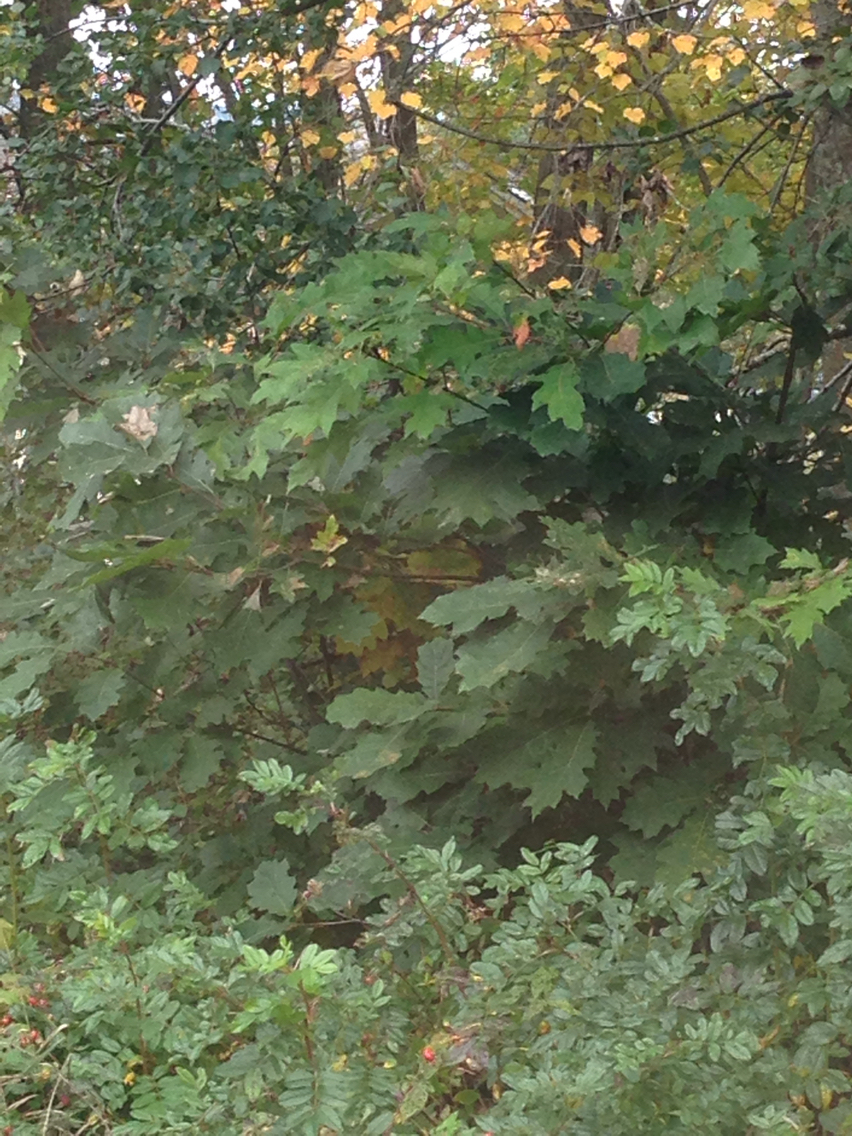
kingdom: Plantae
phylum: Tracheophyta
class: Magnoliopsida
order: Fagales
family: Fagaceae
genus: Quercus
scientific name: Quercus rubra
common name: Red oak
